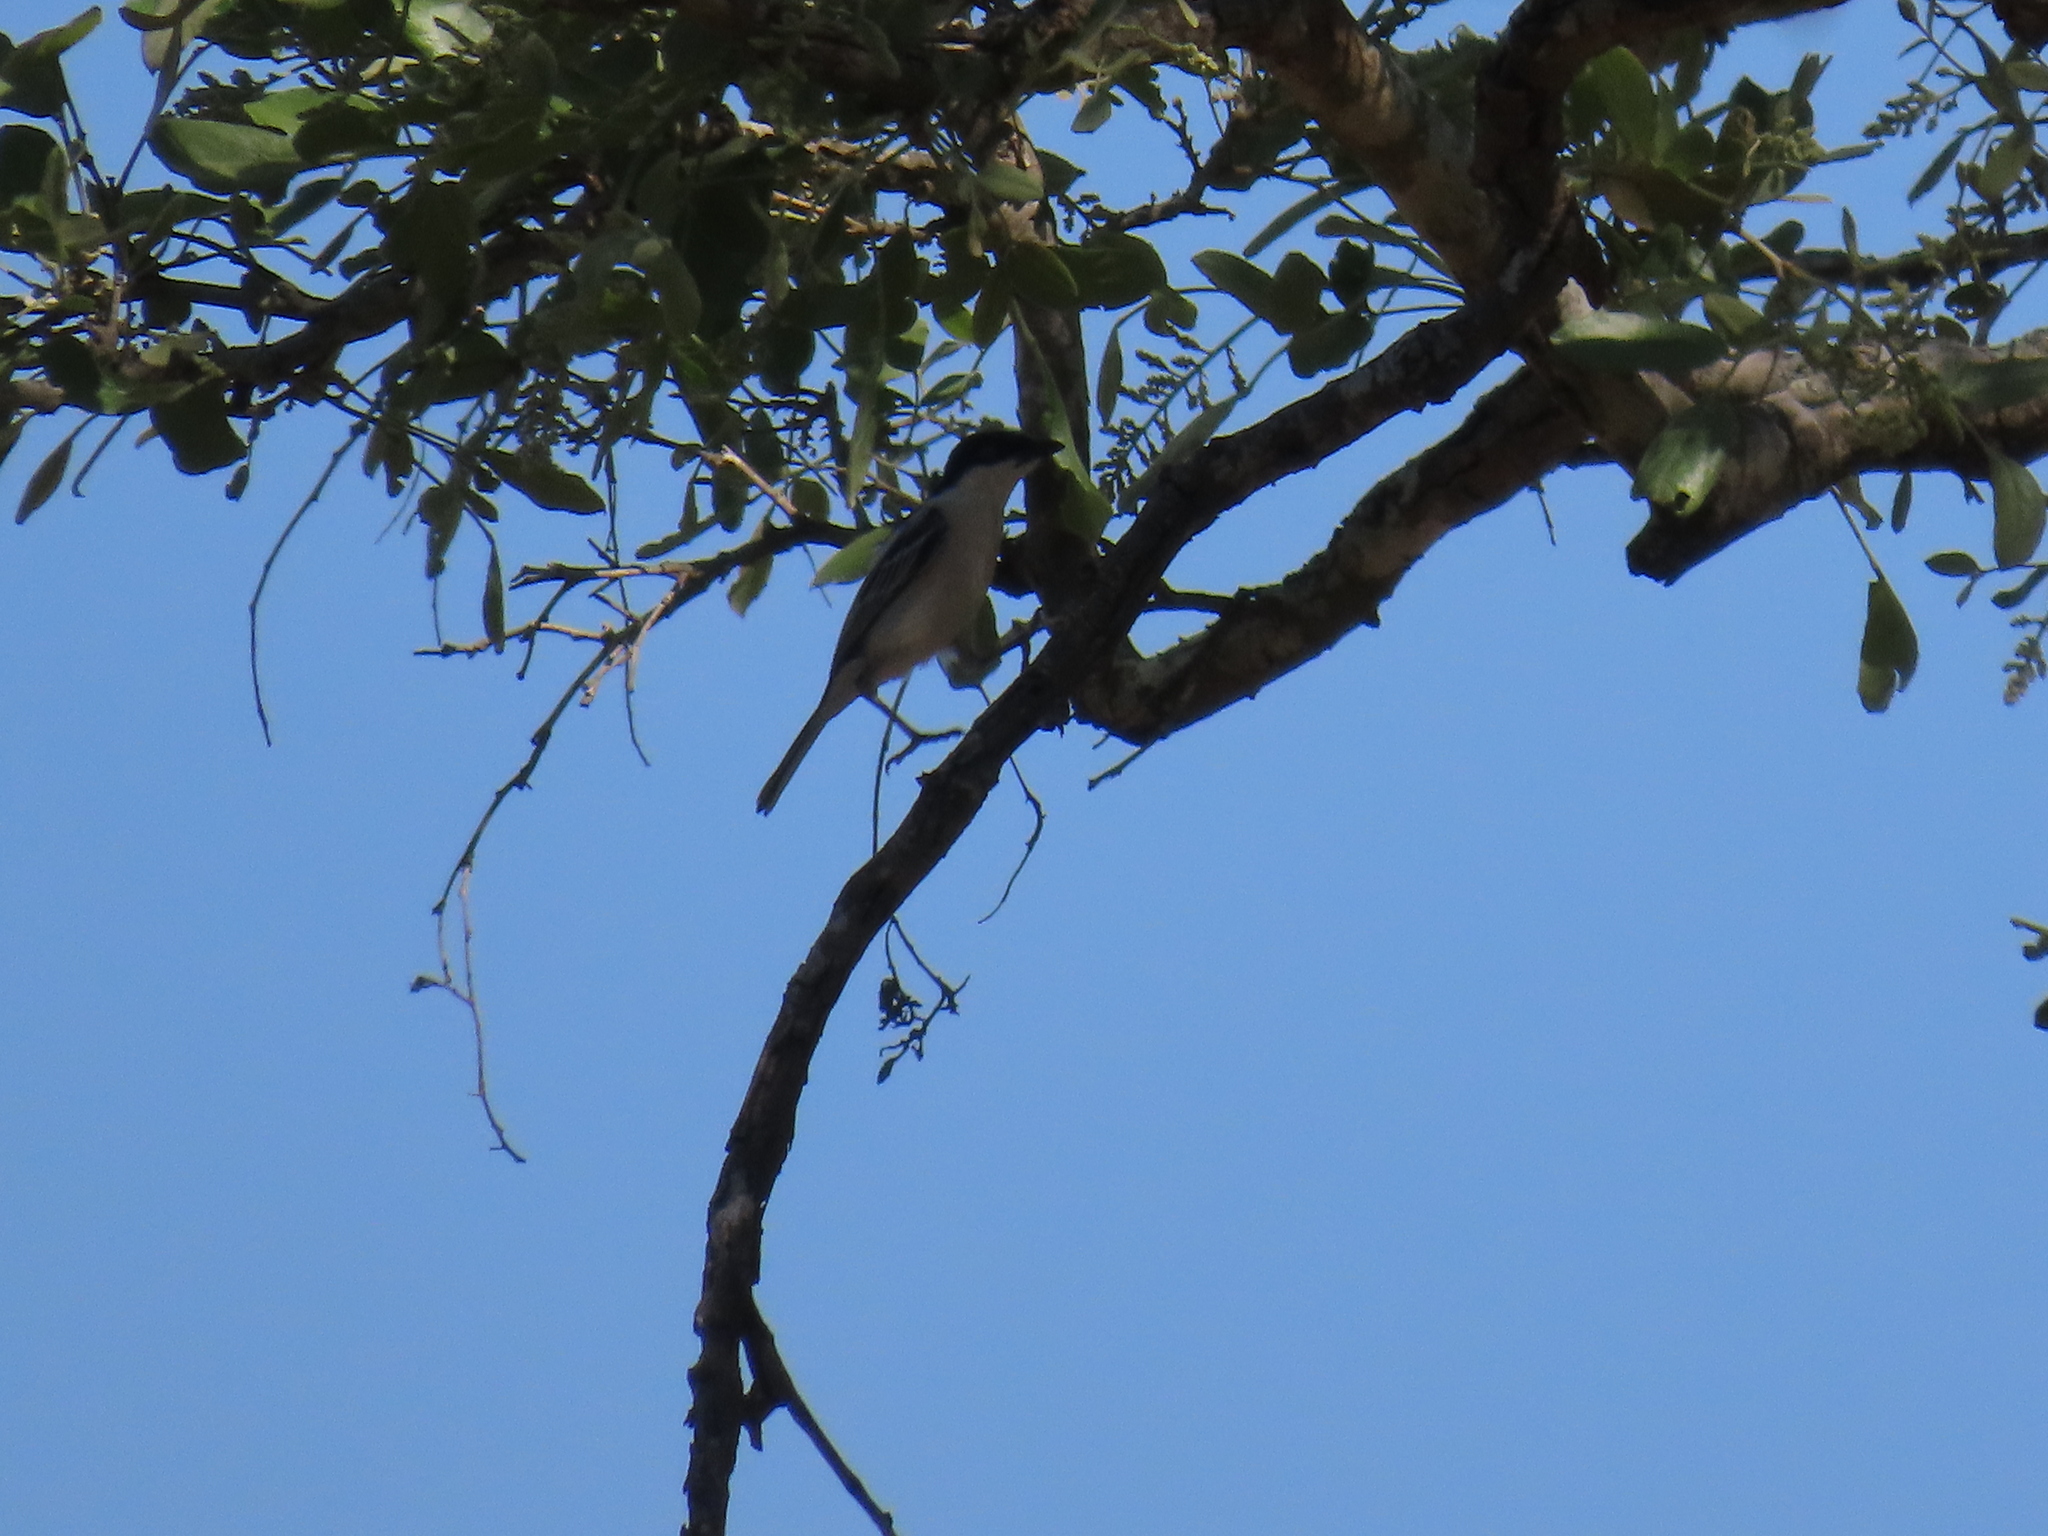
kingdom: Animalia
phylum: Chordata
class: Aves
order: Passeriformes
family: Malaconotidae
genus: Dryoscopus
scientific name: Dryoscopus cubla
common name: Black-backed puffback
